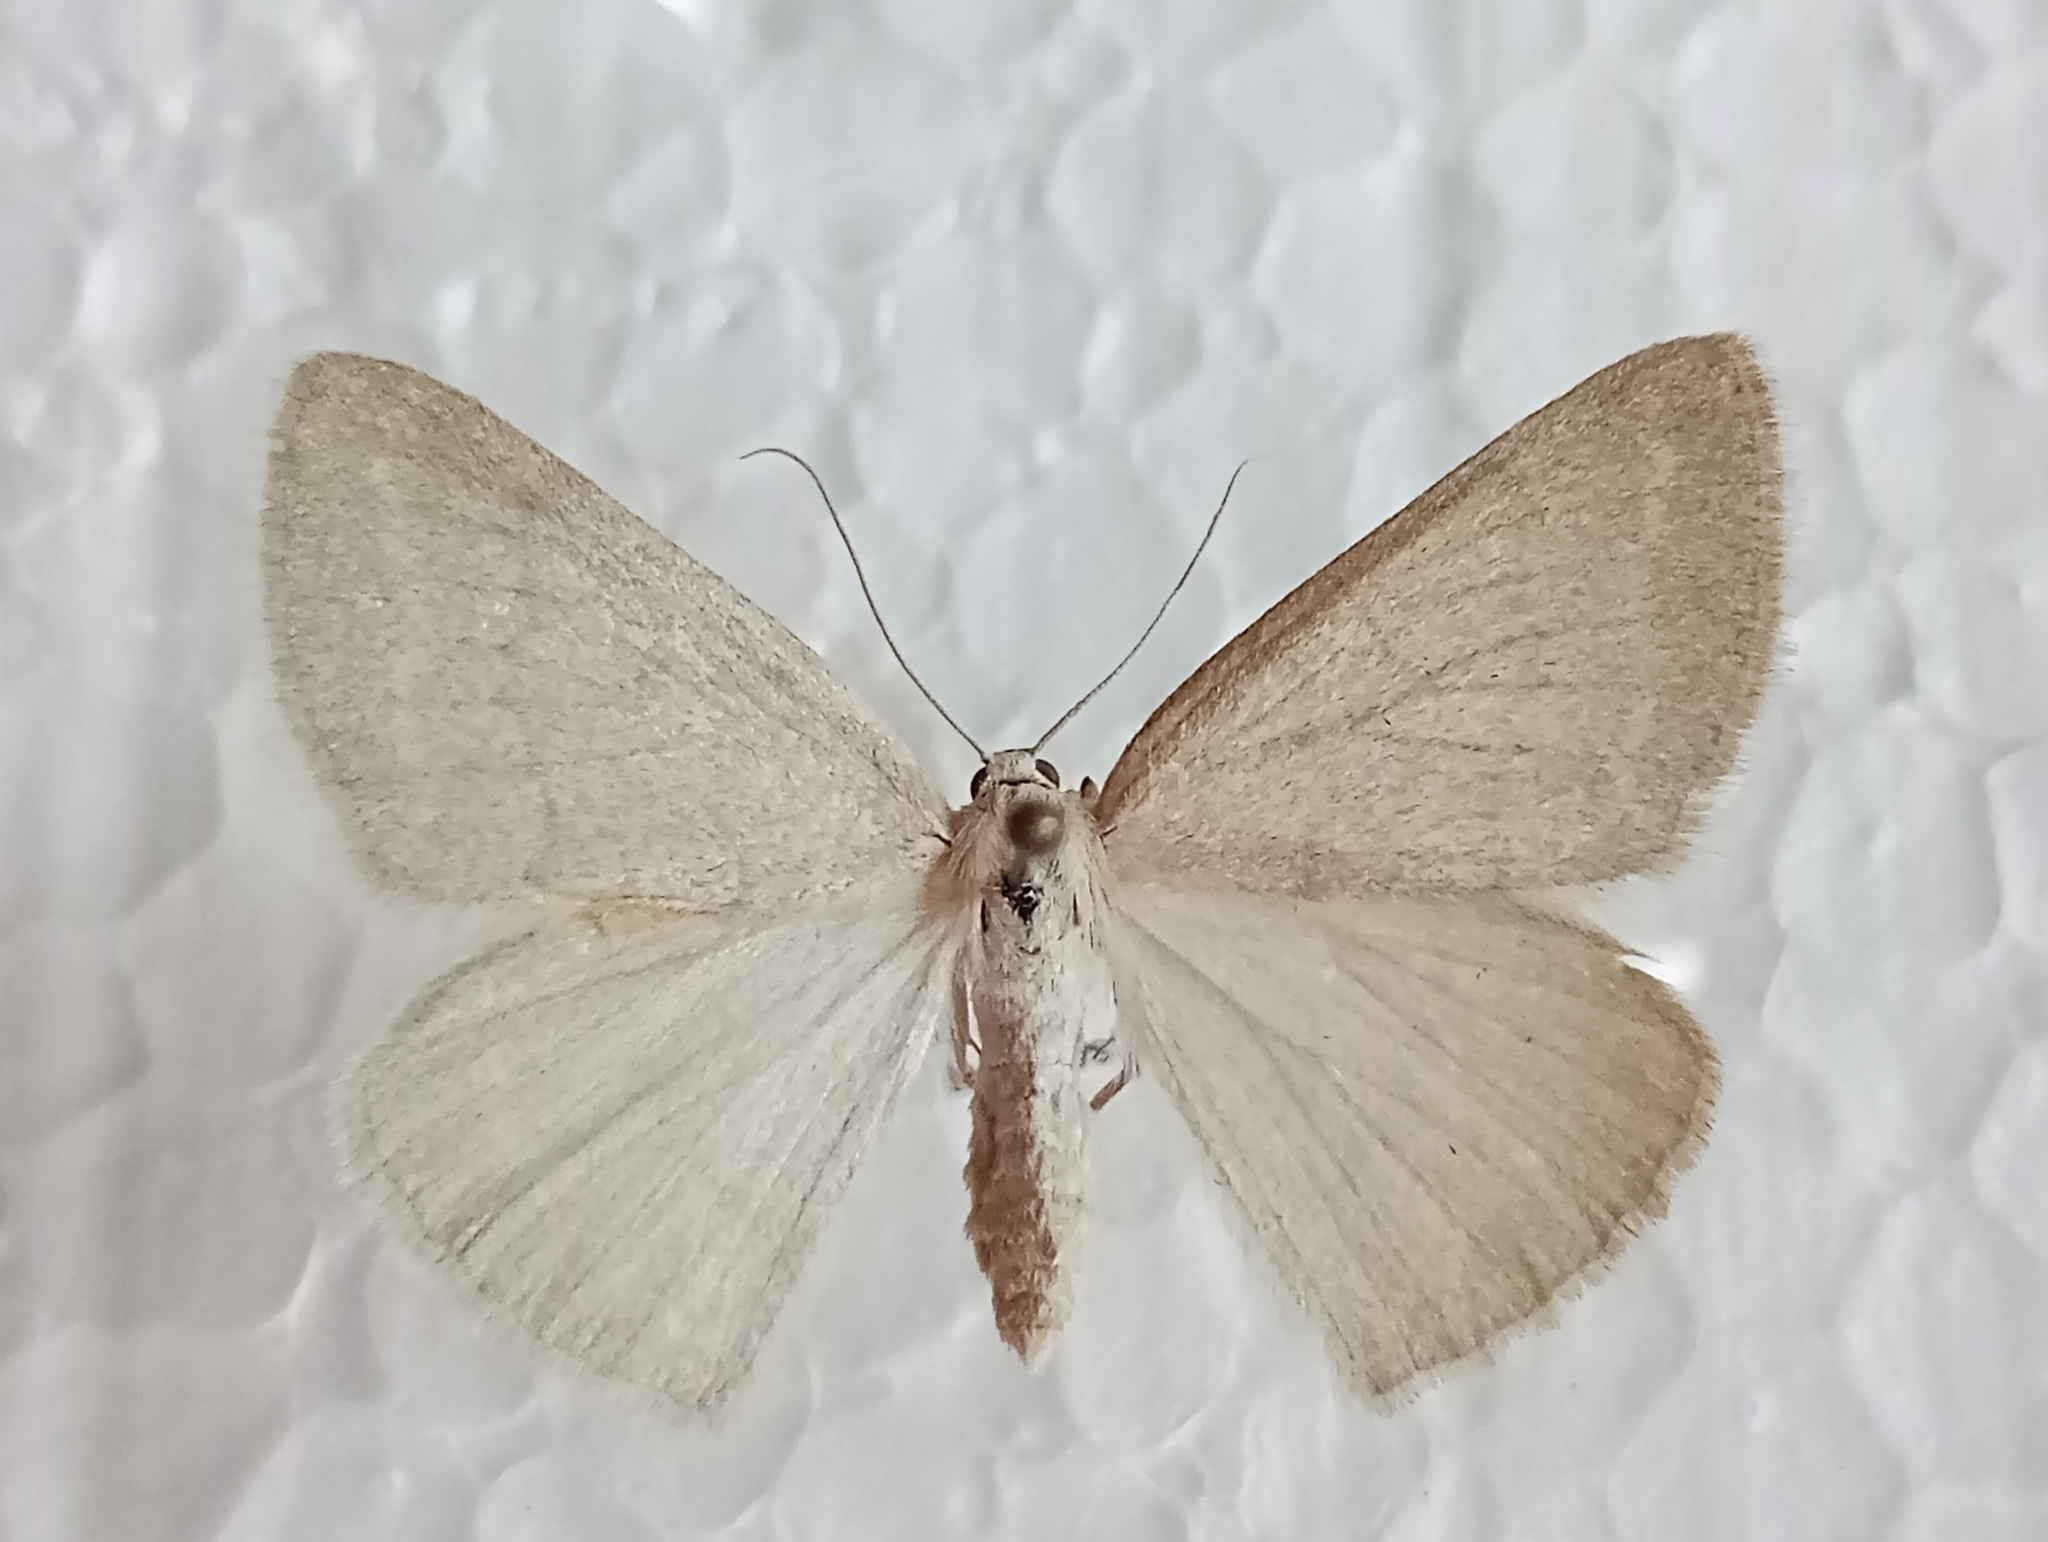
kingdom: Animalia
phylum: Arthropoda
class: Insecta
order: Lepidoptera
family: Geometridae
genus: Pseudoterpna
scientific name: Pseudoterpna pruinata
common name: Grass emerald
